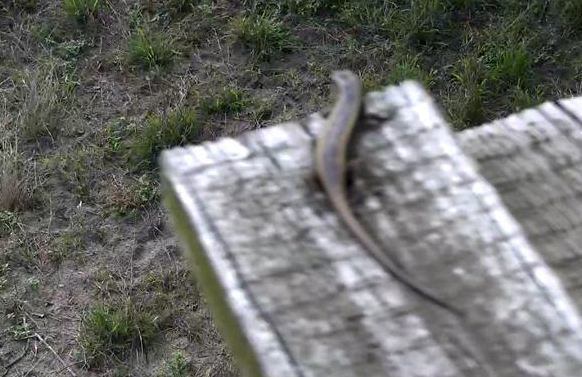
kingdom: Animalia
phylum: Chordata
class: Squamata
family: Scincidae
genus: Trachylepis
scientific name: Trachylepis striata
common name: African striped mabuya
